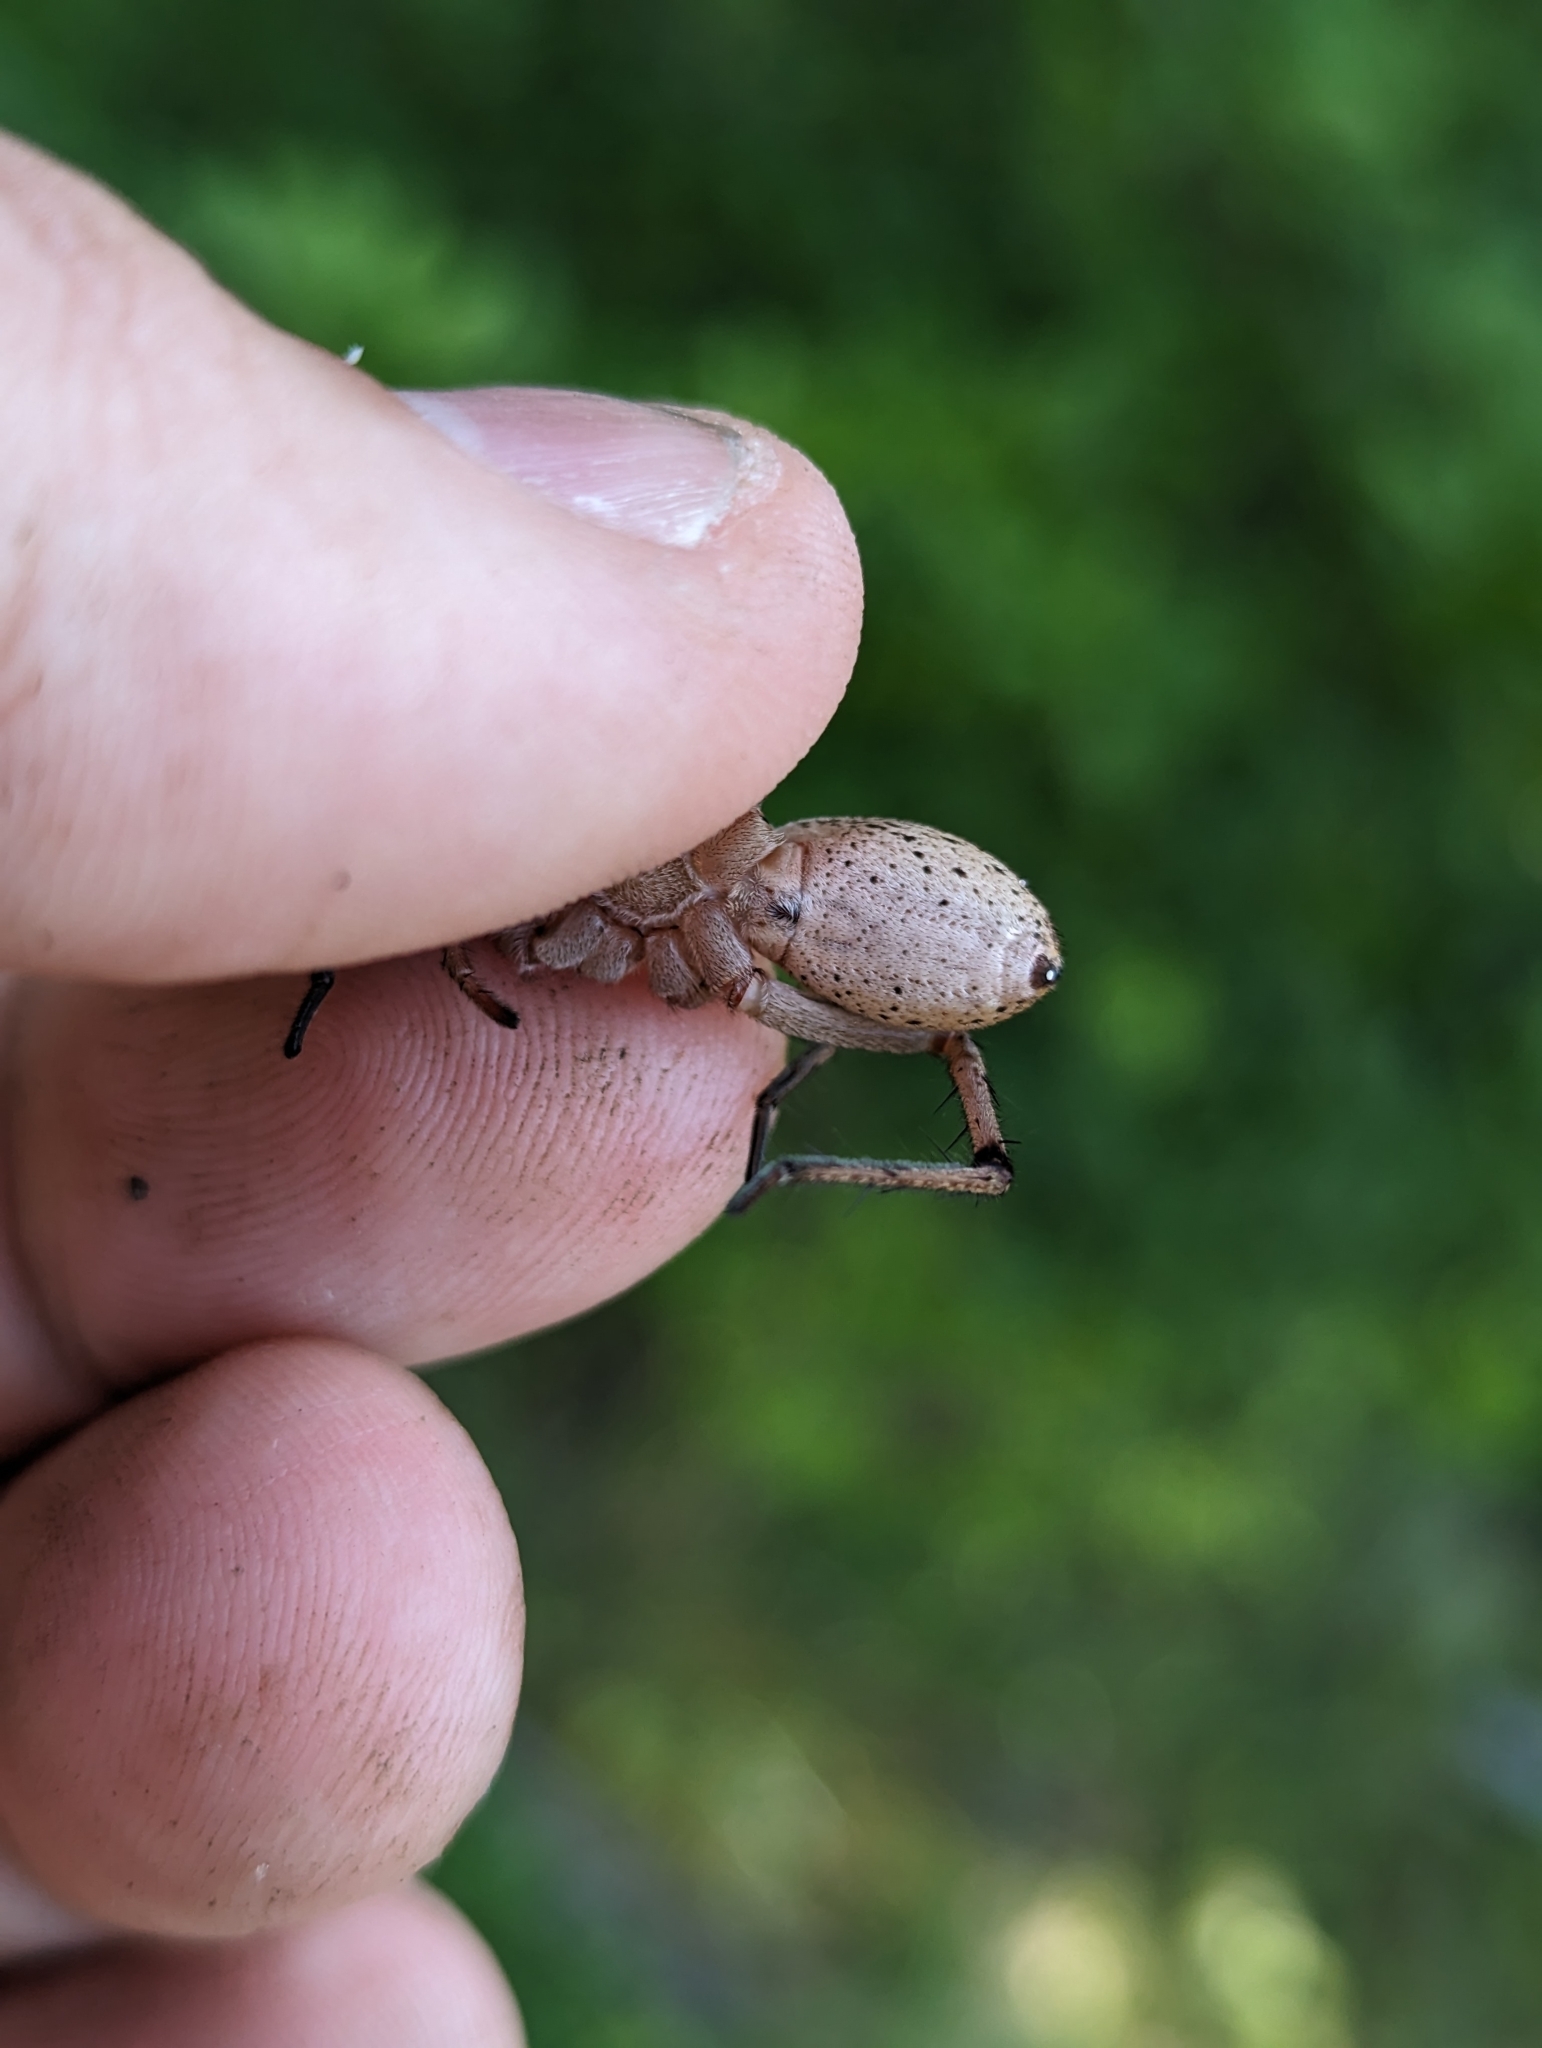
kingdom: Animalia
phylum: Arthropoda
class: Arachnida
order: Araneae
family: Lycosidae
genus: Rabidosa
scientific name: Rabidosa rabida
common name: Rabid wolf spider
